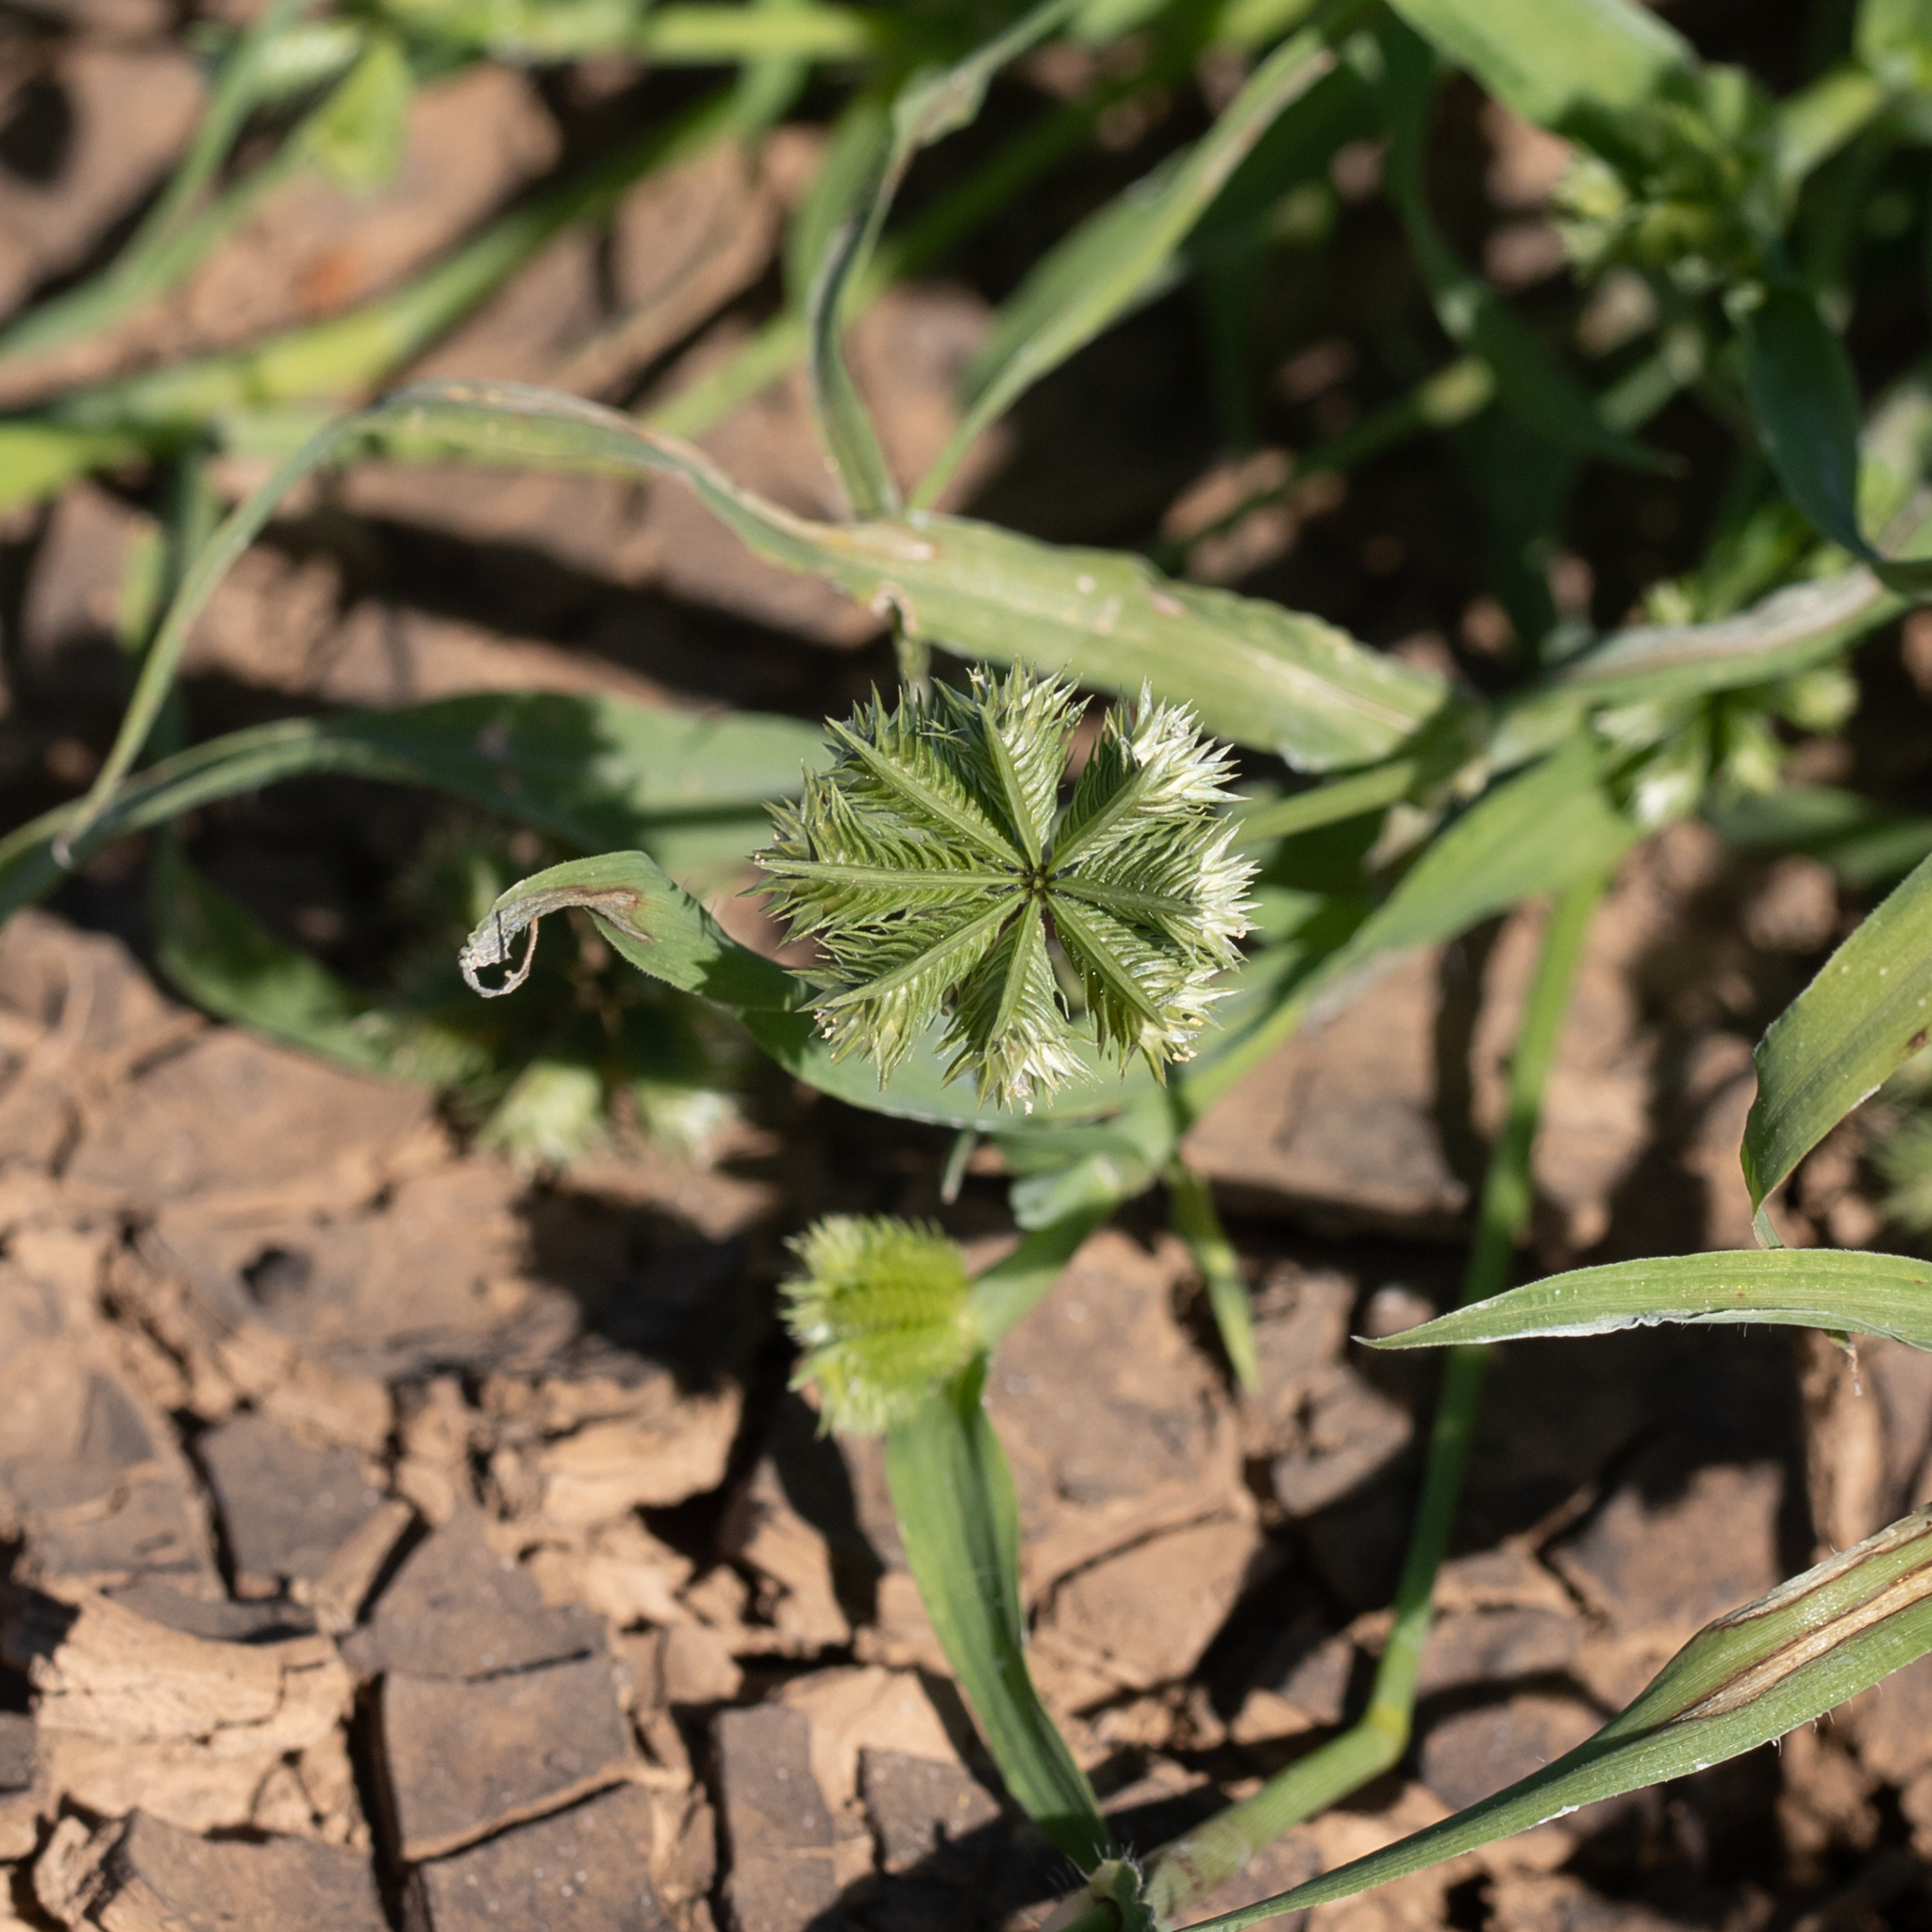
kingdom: Plantae
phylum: Tracheophyta
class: Liliopsida
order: Poales
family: Poaceae
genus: Dactyloctenium
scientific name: Dactyloctenium radulans
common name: Button-grass
